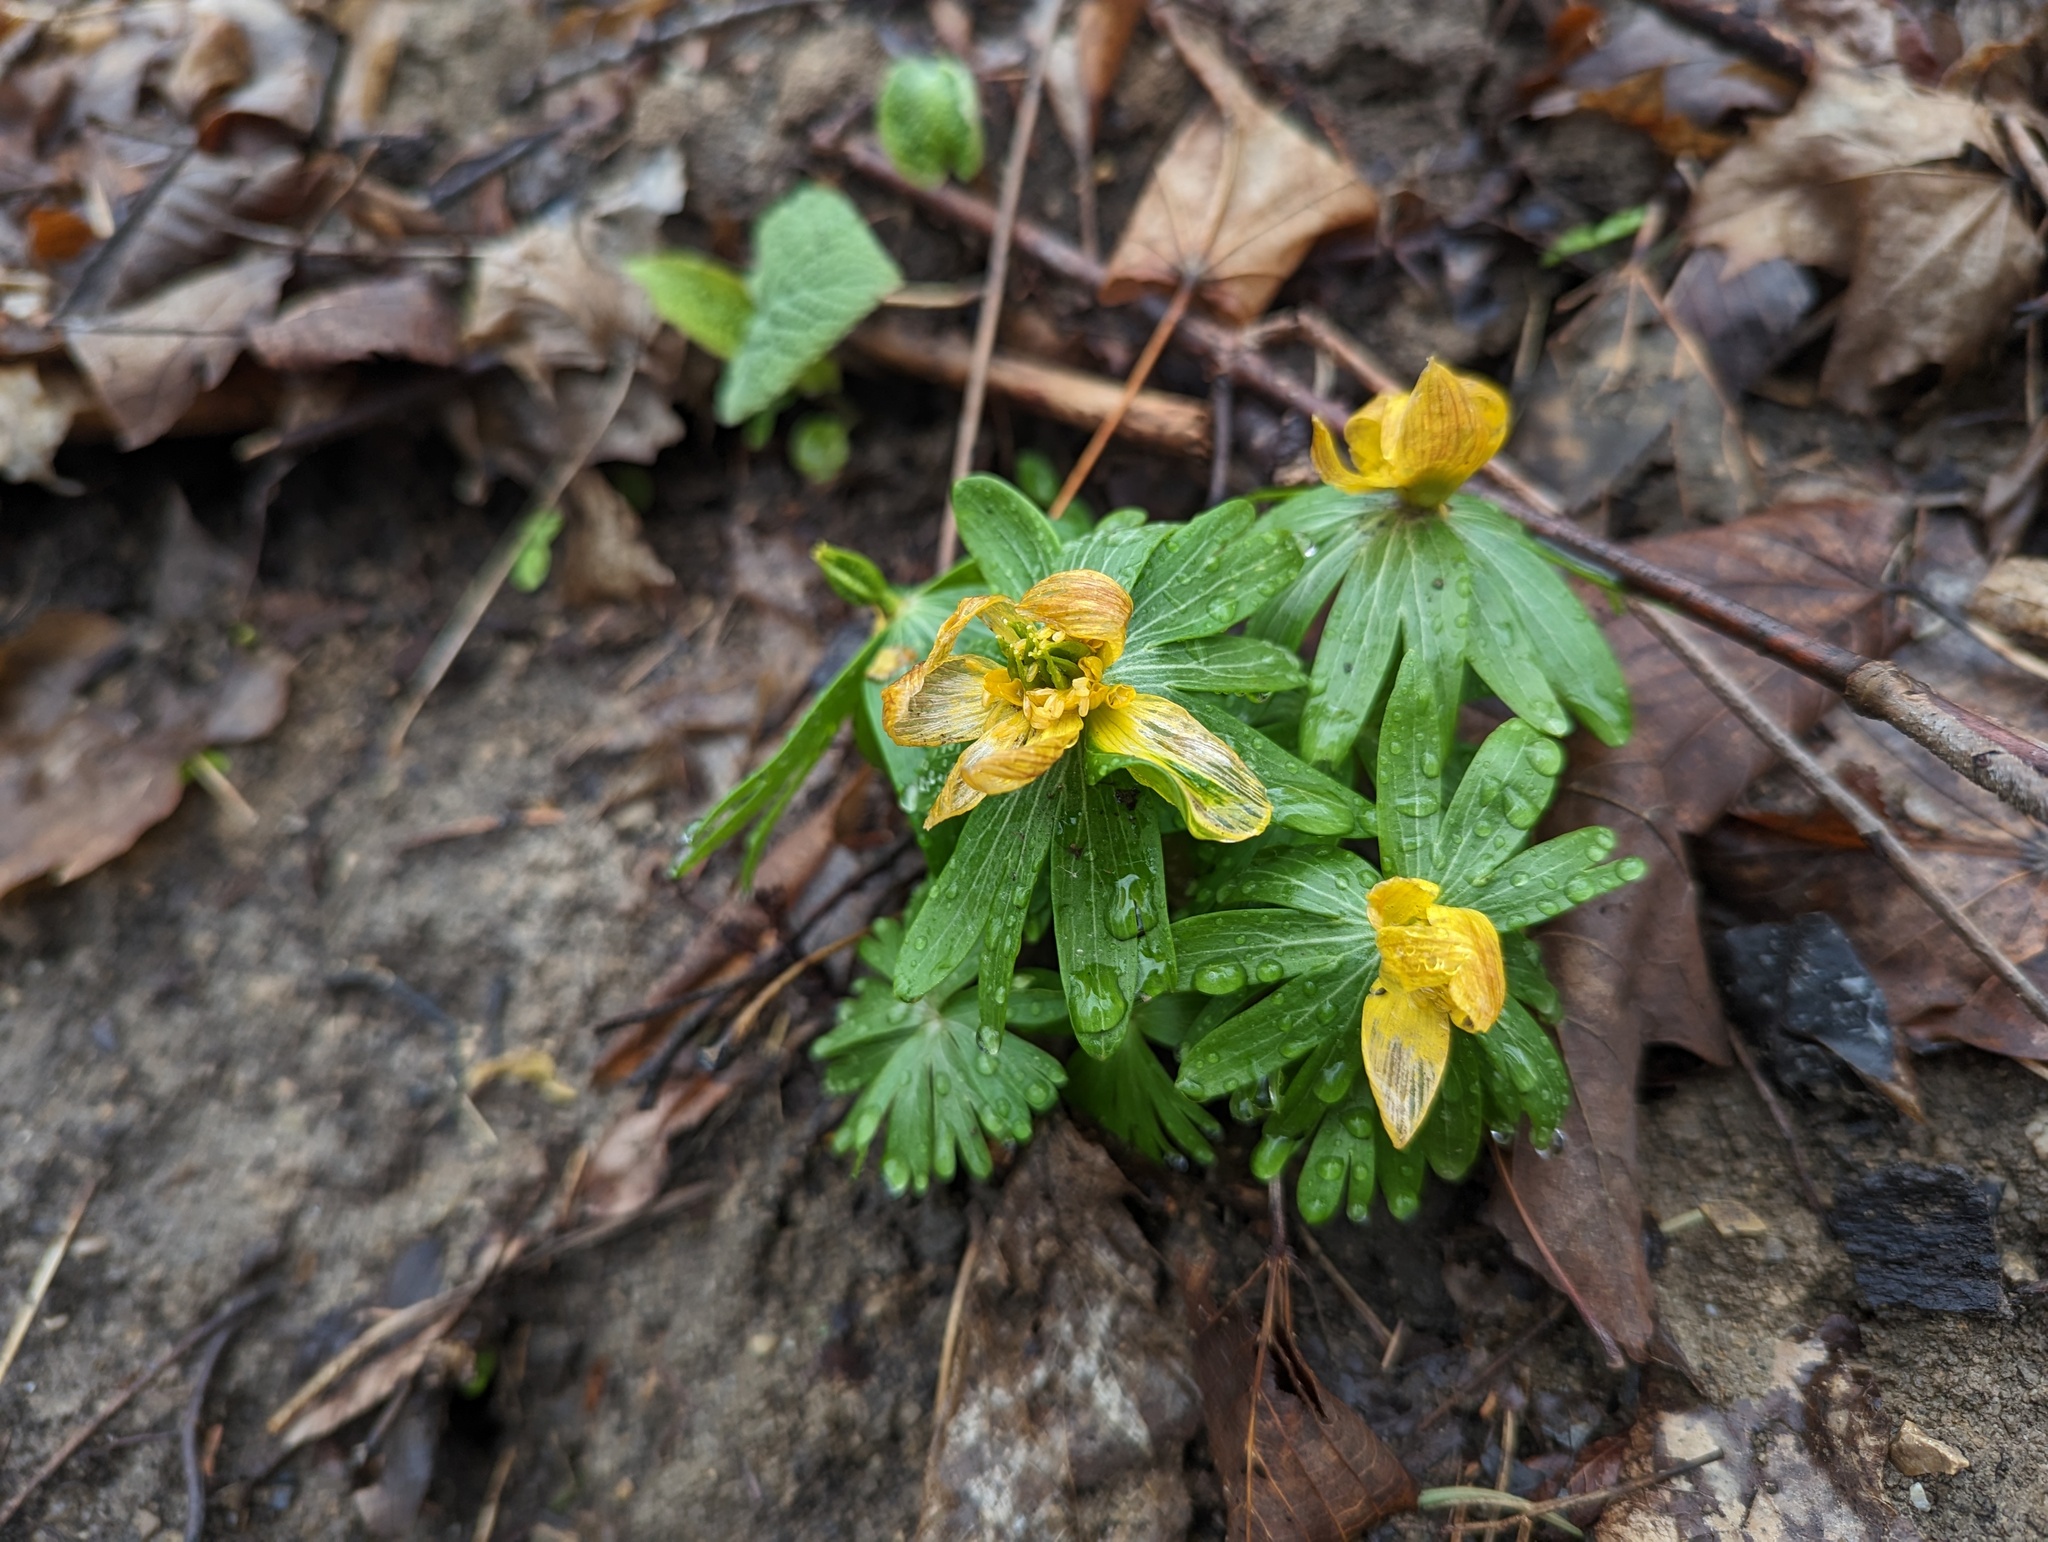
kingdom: Plantae
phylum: Tracheophyta
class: Magnoliopsida
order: Ranunculales
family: Ranunculaceae
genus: Eranthis
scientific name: Eranthis hyemalis
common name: Winter aconite
